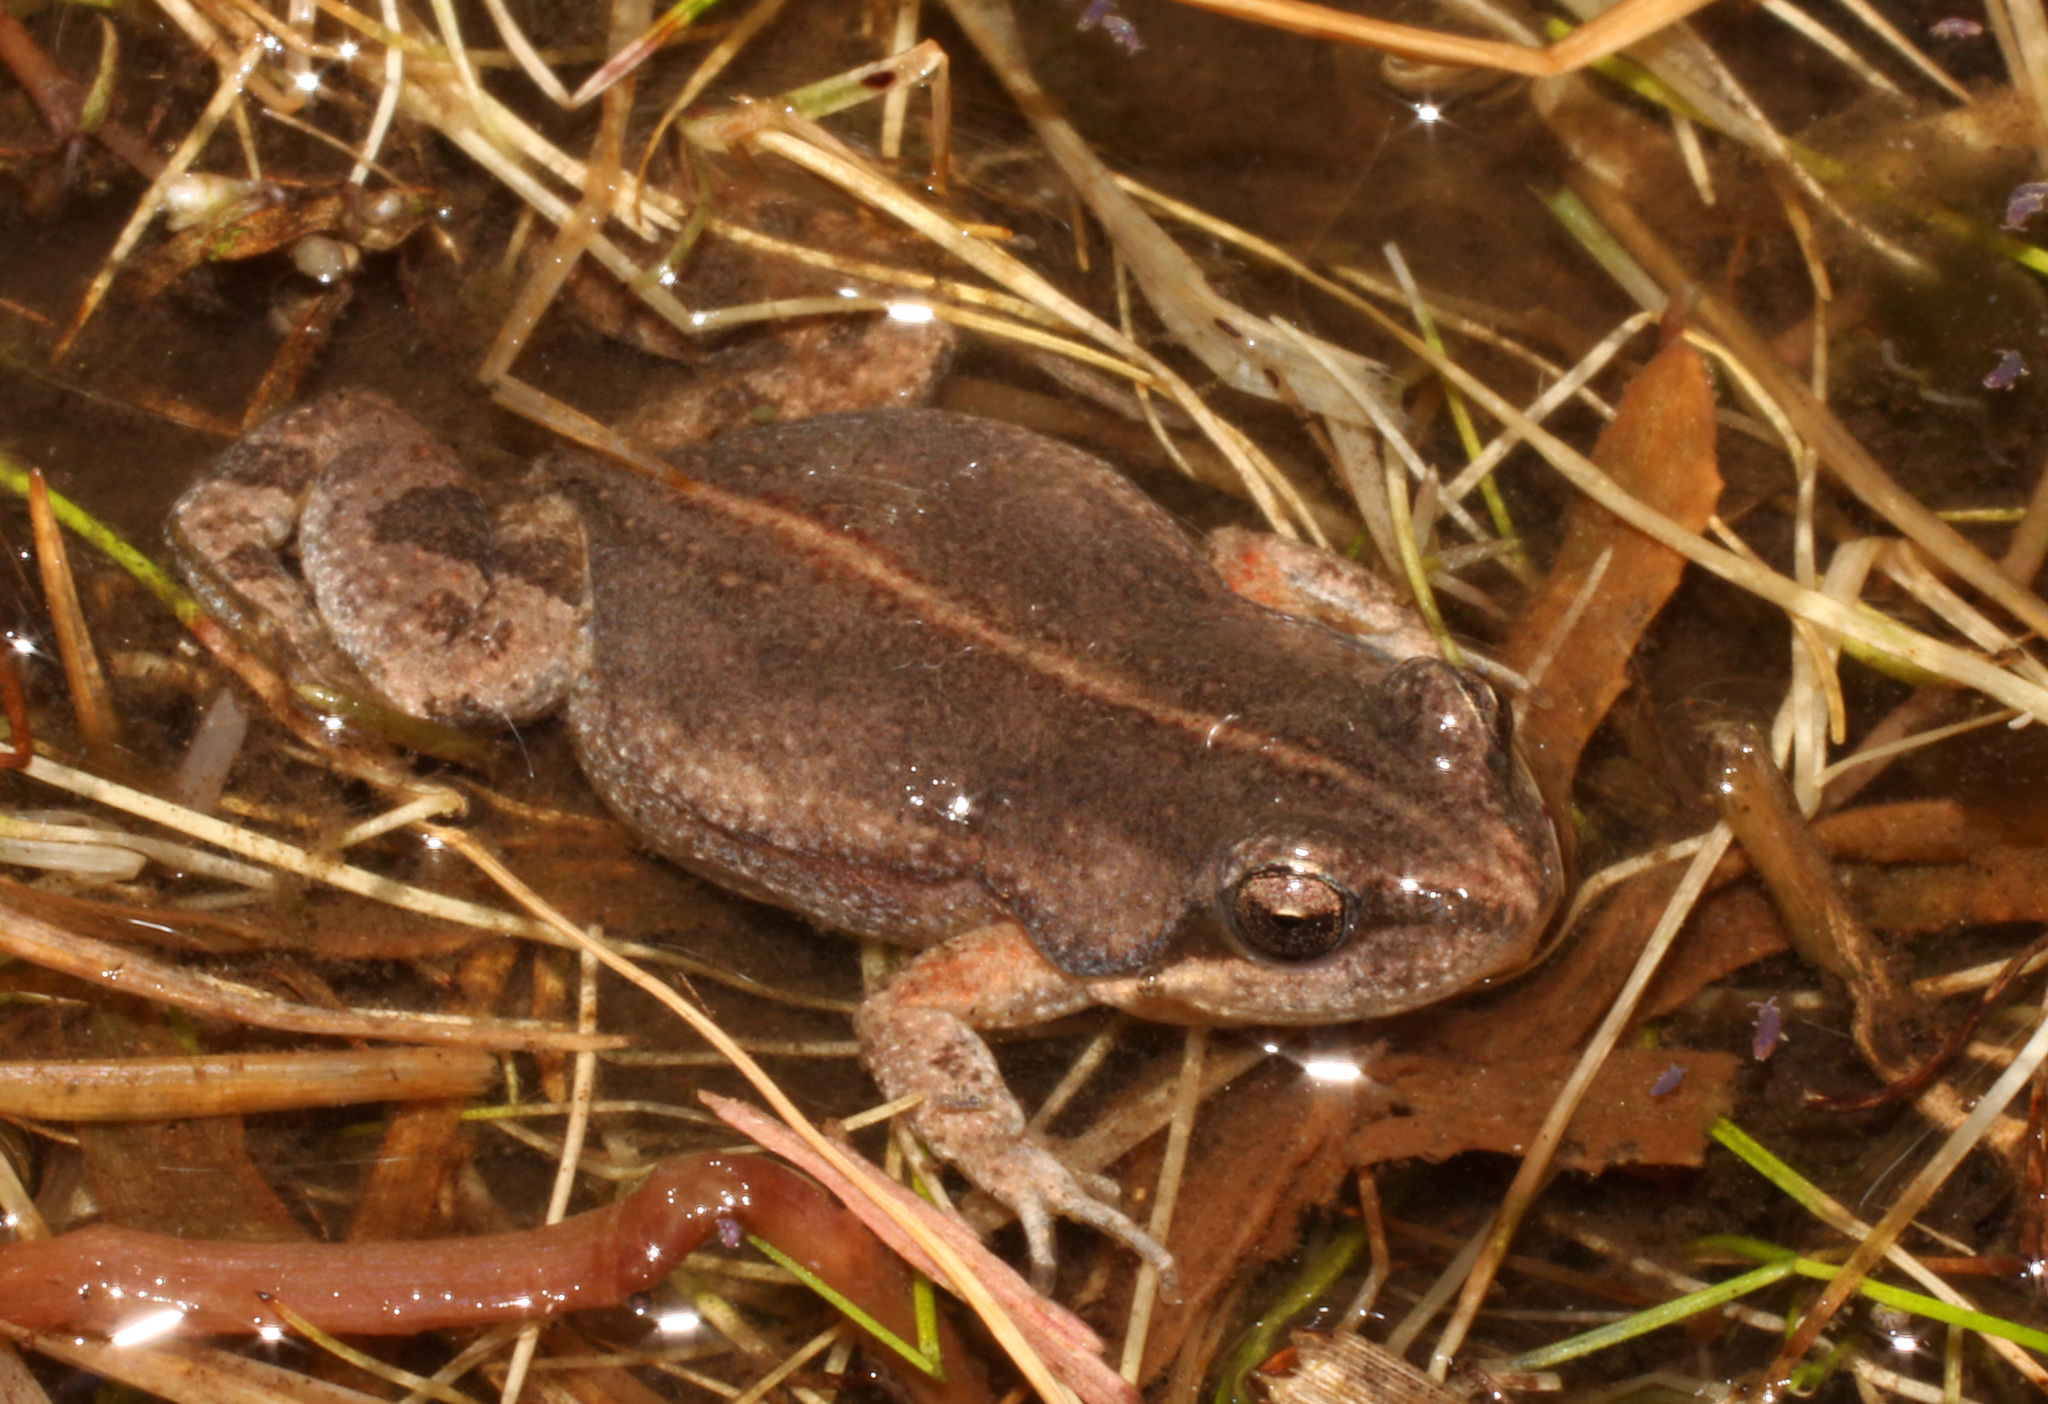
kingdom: Animalia
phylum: Chordata
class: Amphibia
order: Anura
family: Pyxicephalidae
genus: Cacosternum
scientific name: Cacosternum aggestum
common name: Klipheuwel dainty frog
